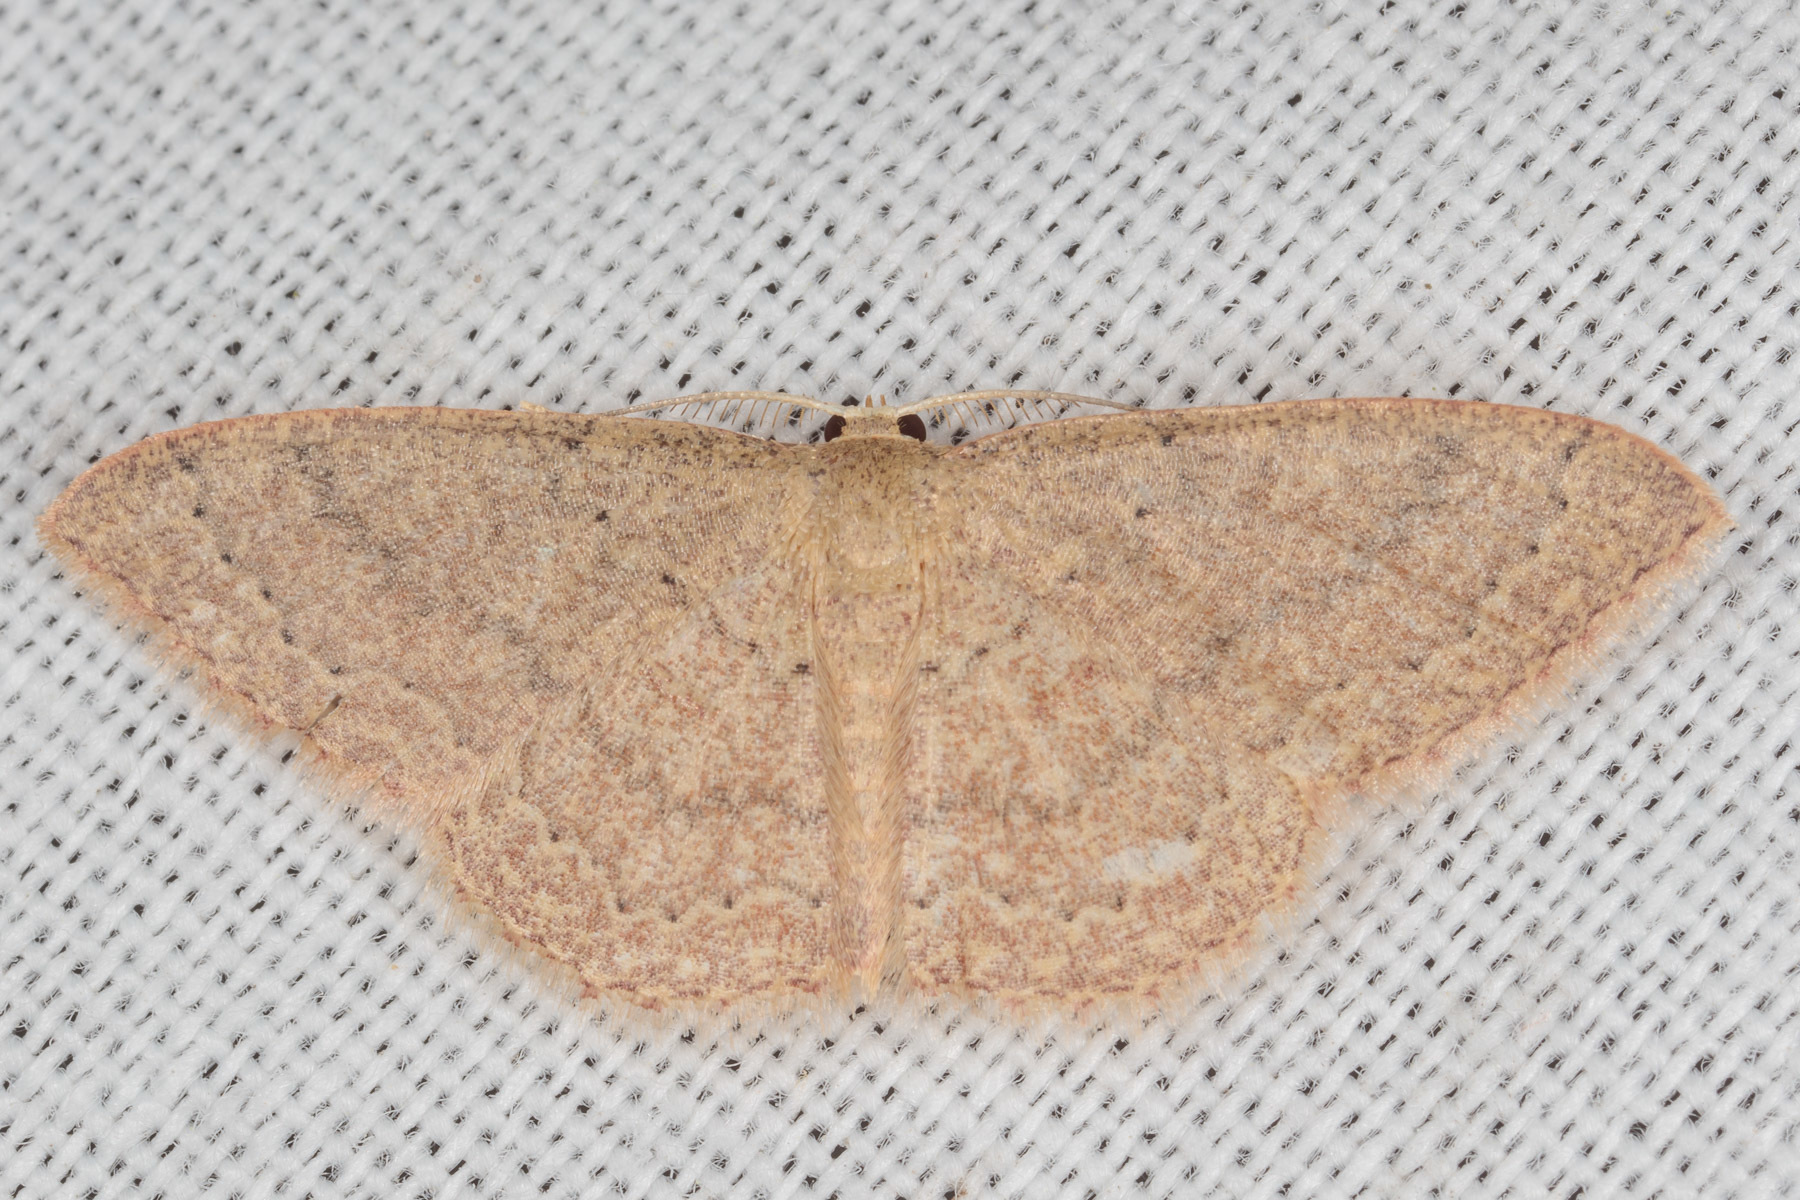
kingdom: Animalia
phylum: Arthropoda
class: Insecta
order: Lepidoptera
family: Geometridae
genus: Pleuroprucha
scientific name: Pleuroprucha insulsaria
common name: Common tan wave
